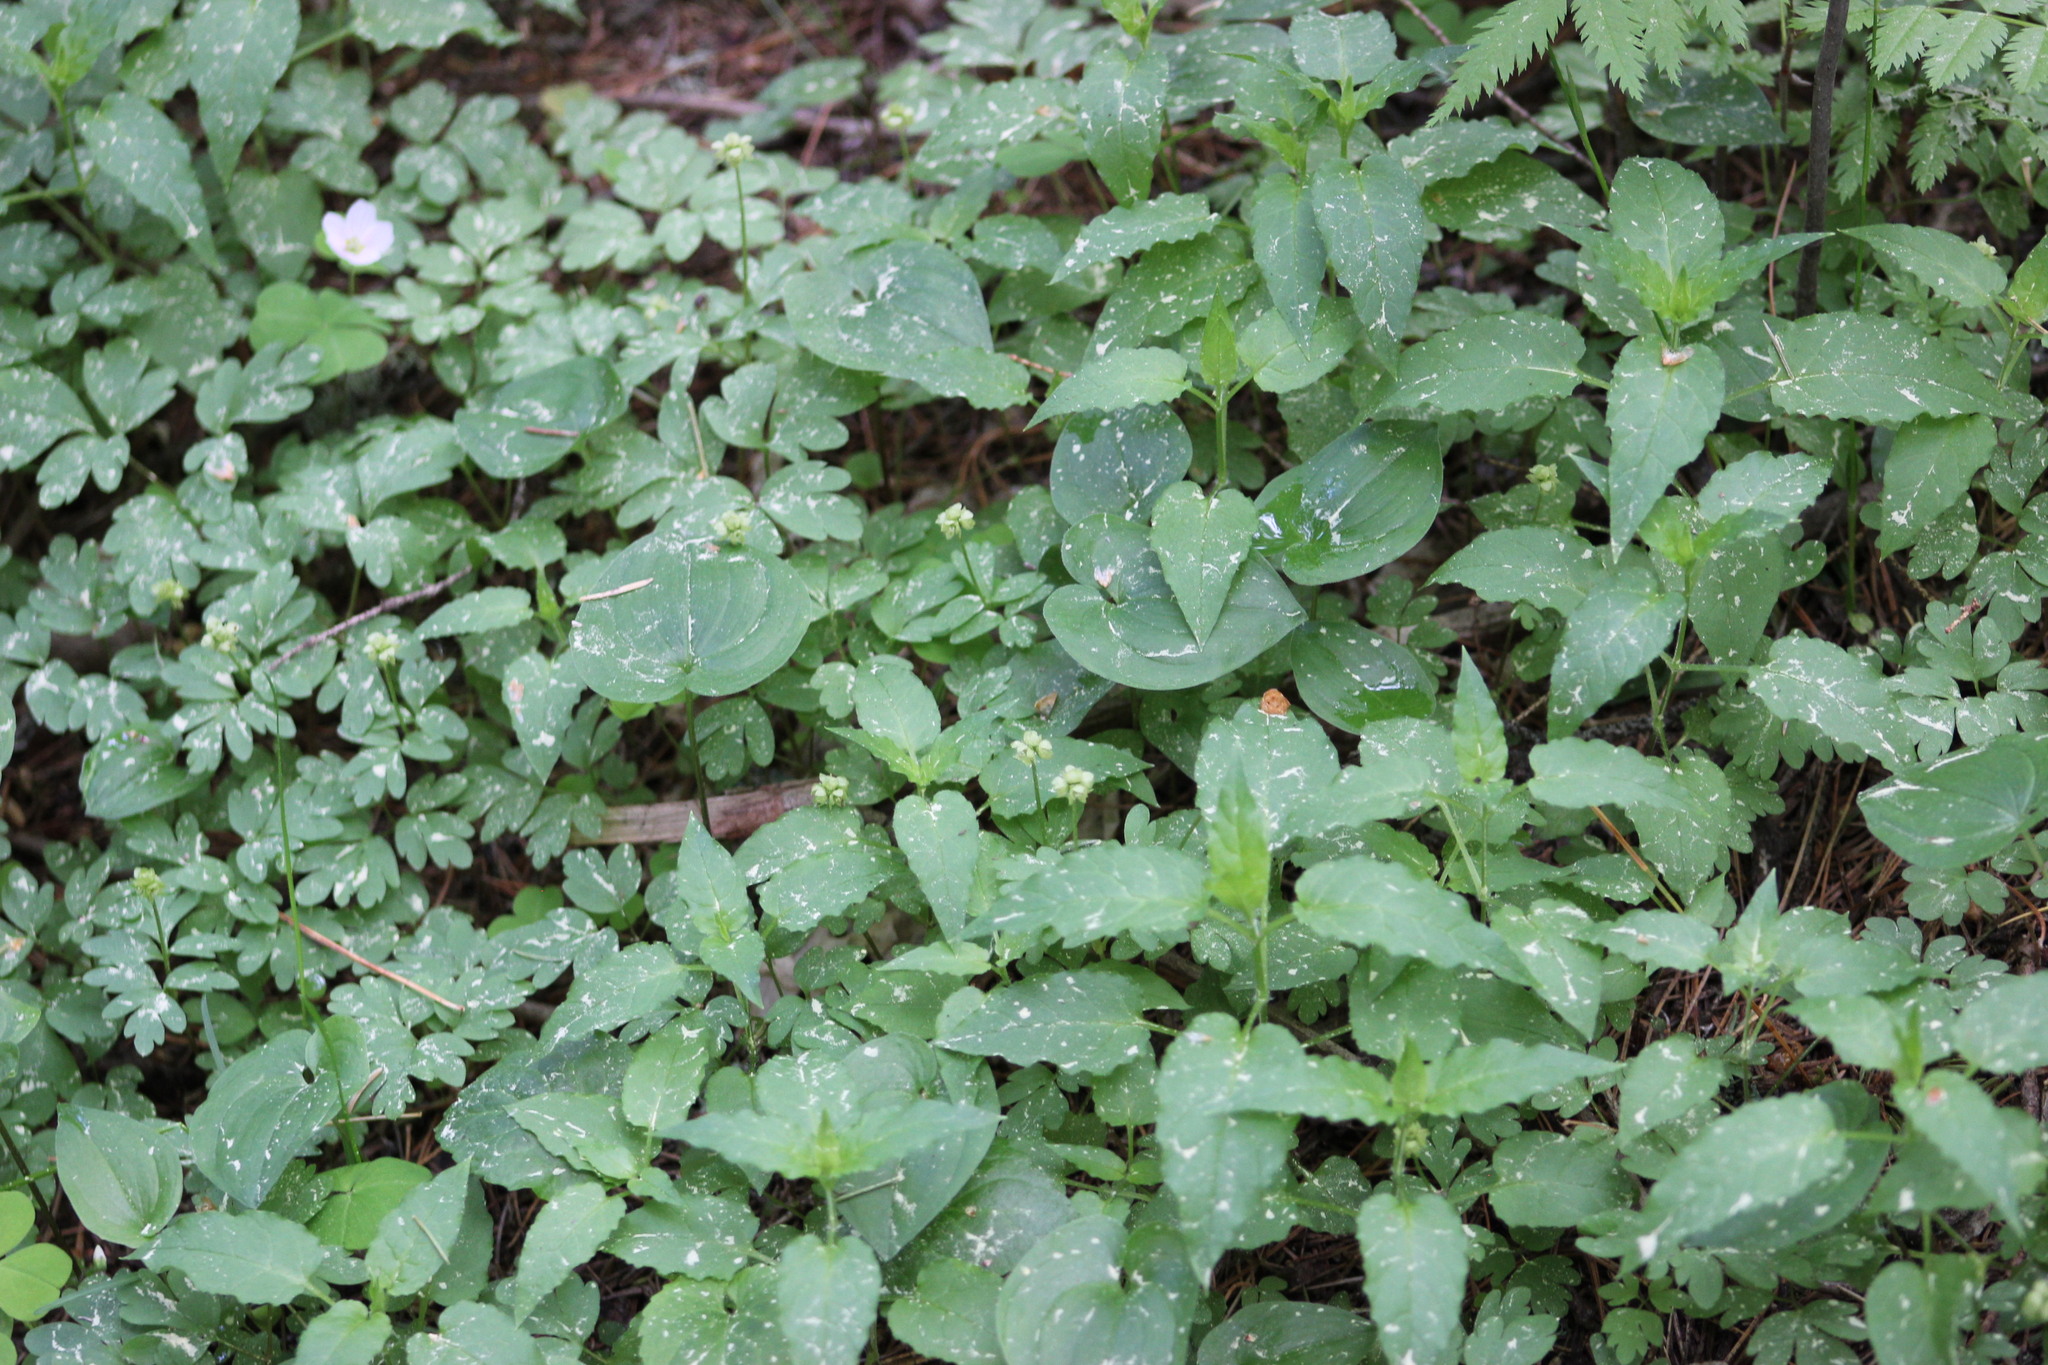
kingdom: Plantae
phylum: Tracheophyta
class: Magnoliopsida
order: Caryophyllales
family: Caryophyllaceae
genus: Stellaria
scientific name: Stellaria bungeana
